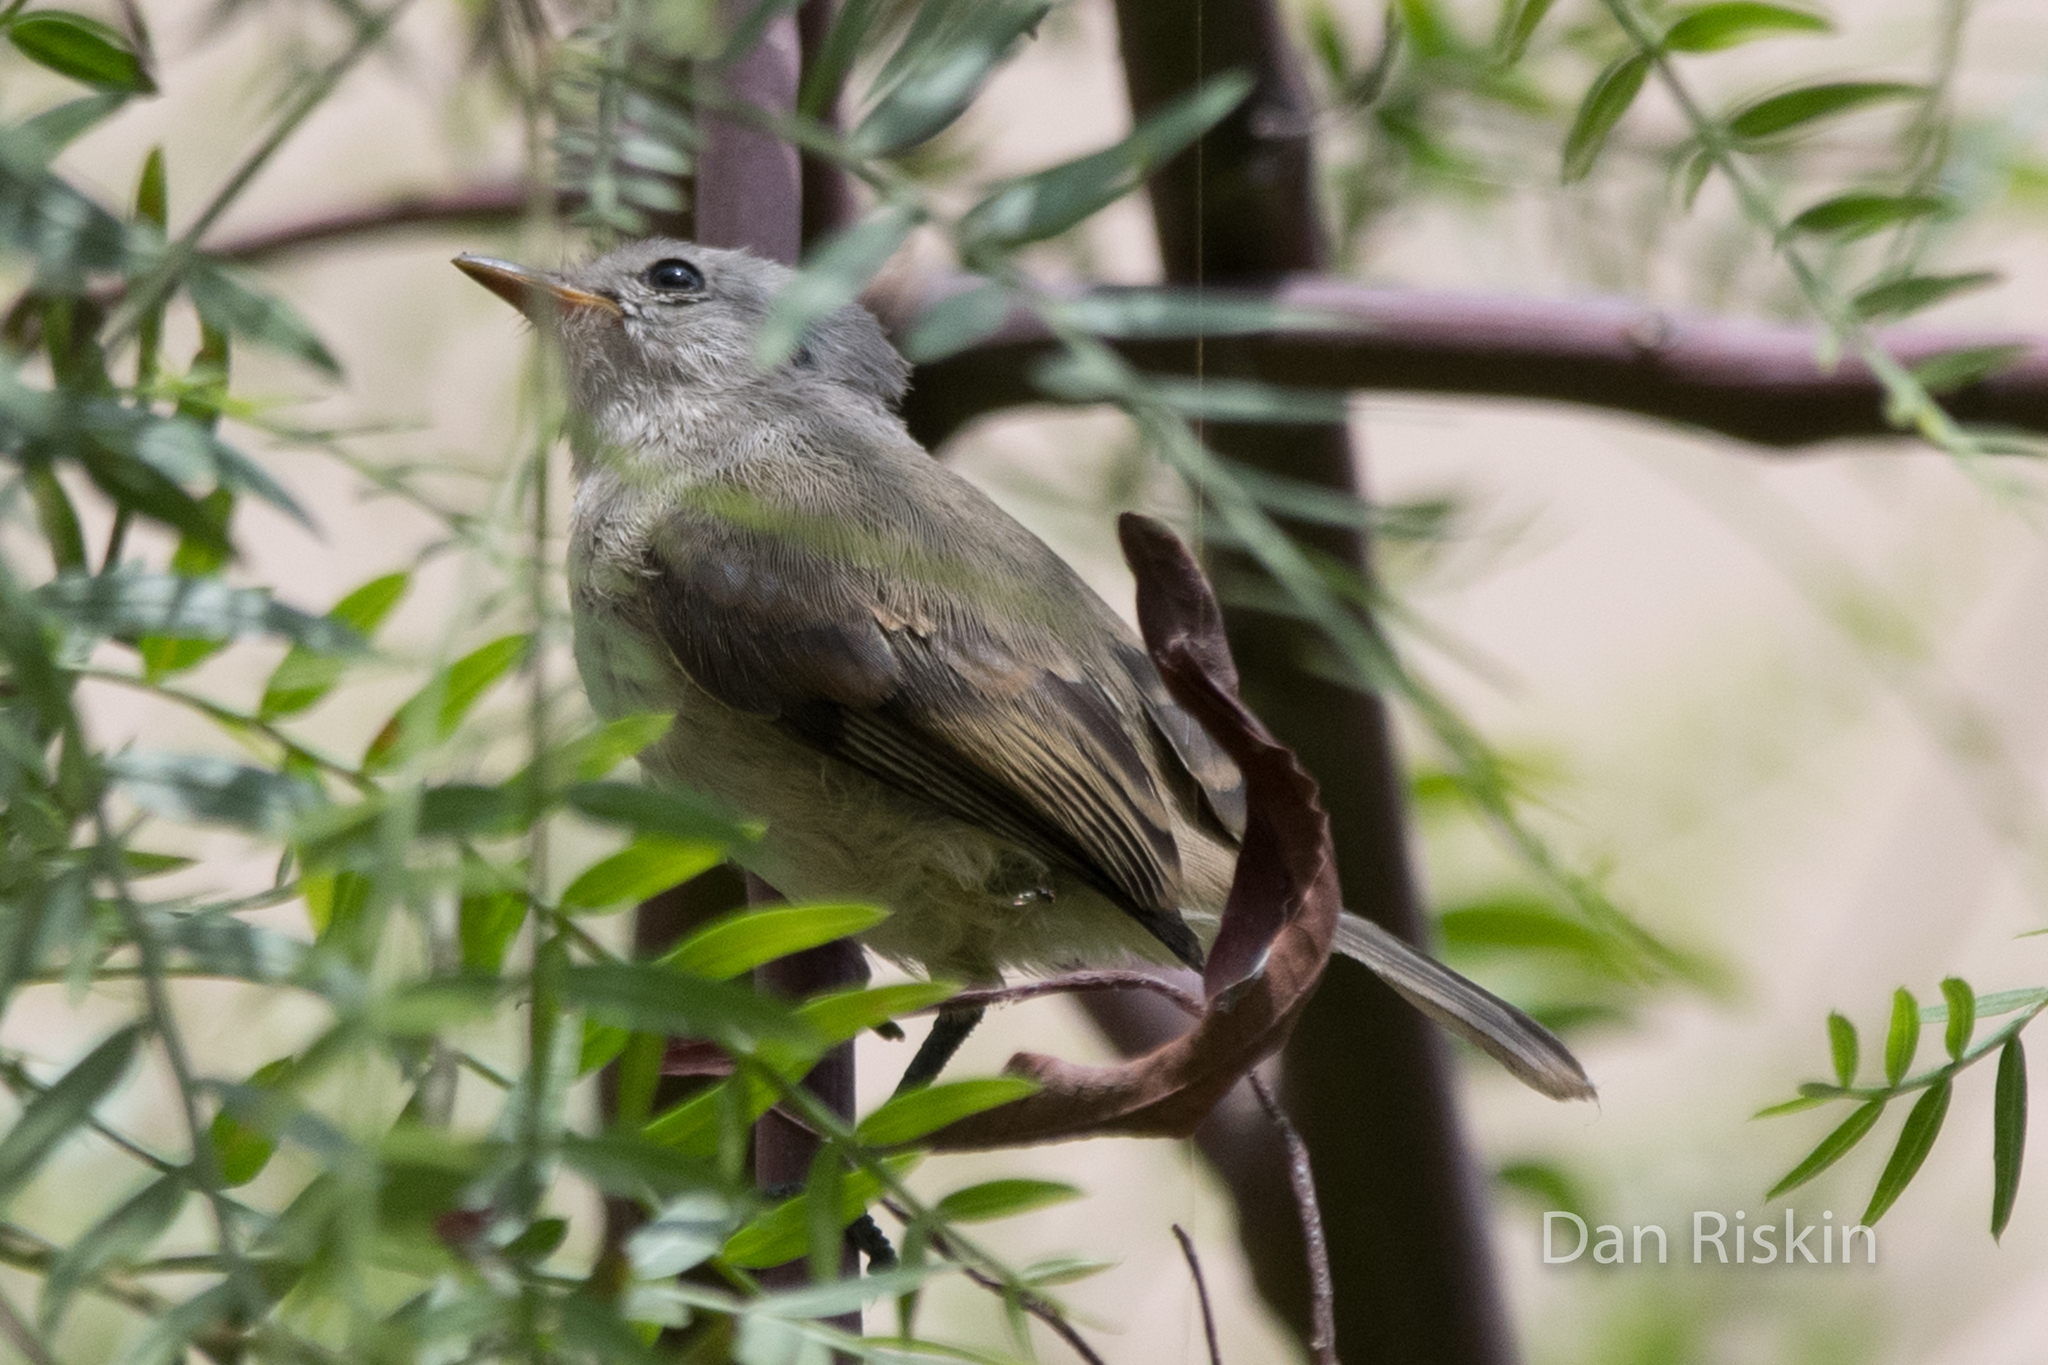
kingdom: Animalia
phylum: Chordata
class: Aves
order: Passeriformes
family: Tyrannidae
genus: Camptostoma
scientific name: Camptostoma obsoletum
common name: Southern beardless-tyrannulet
